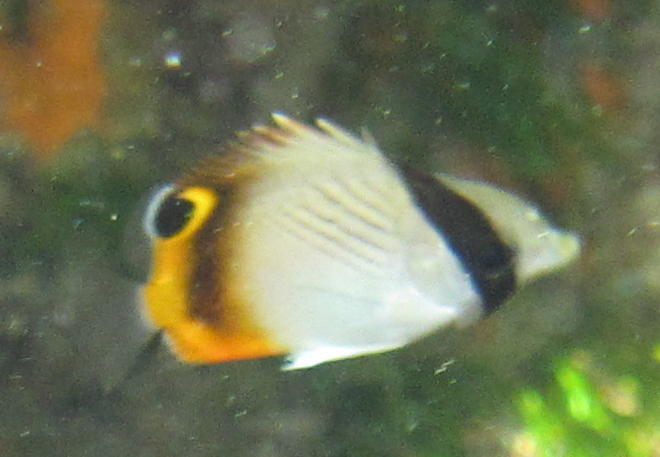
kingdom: Animalia
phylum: Chordata
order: Perciformes
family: Chaetodontidae
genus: Chaetodon
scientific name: Chaetodon vagabundus
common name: Vagabond butterflyfish
